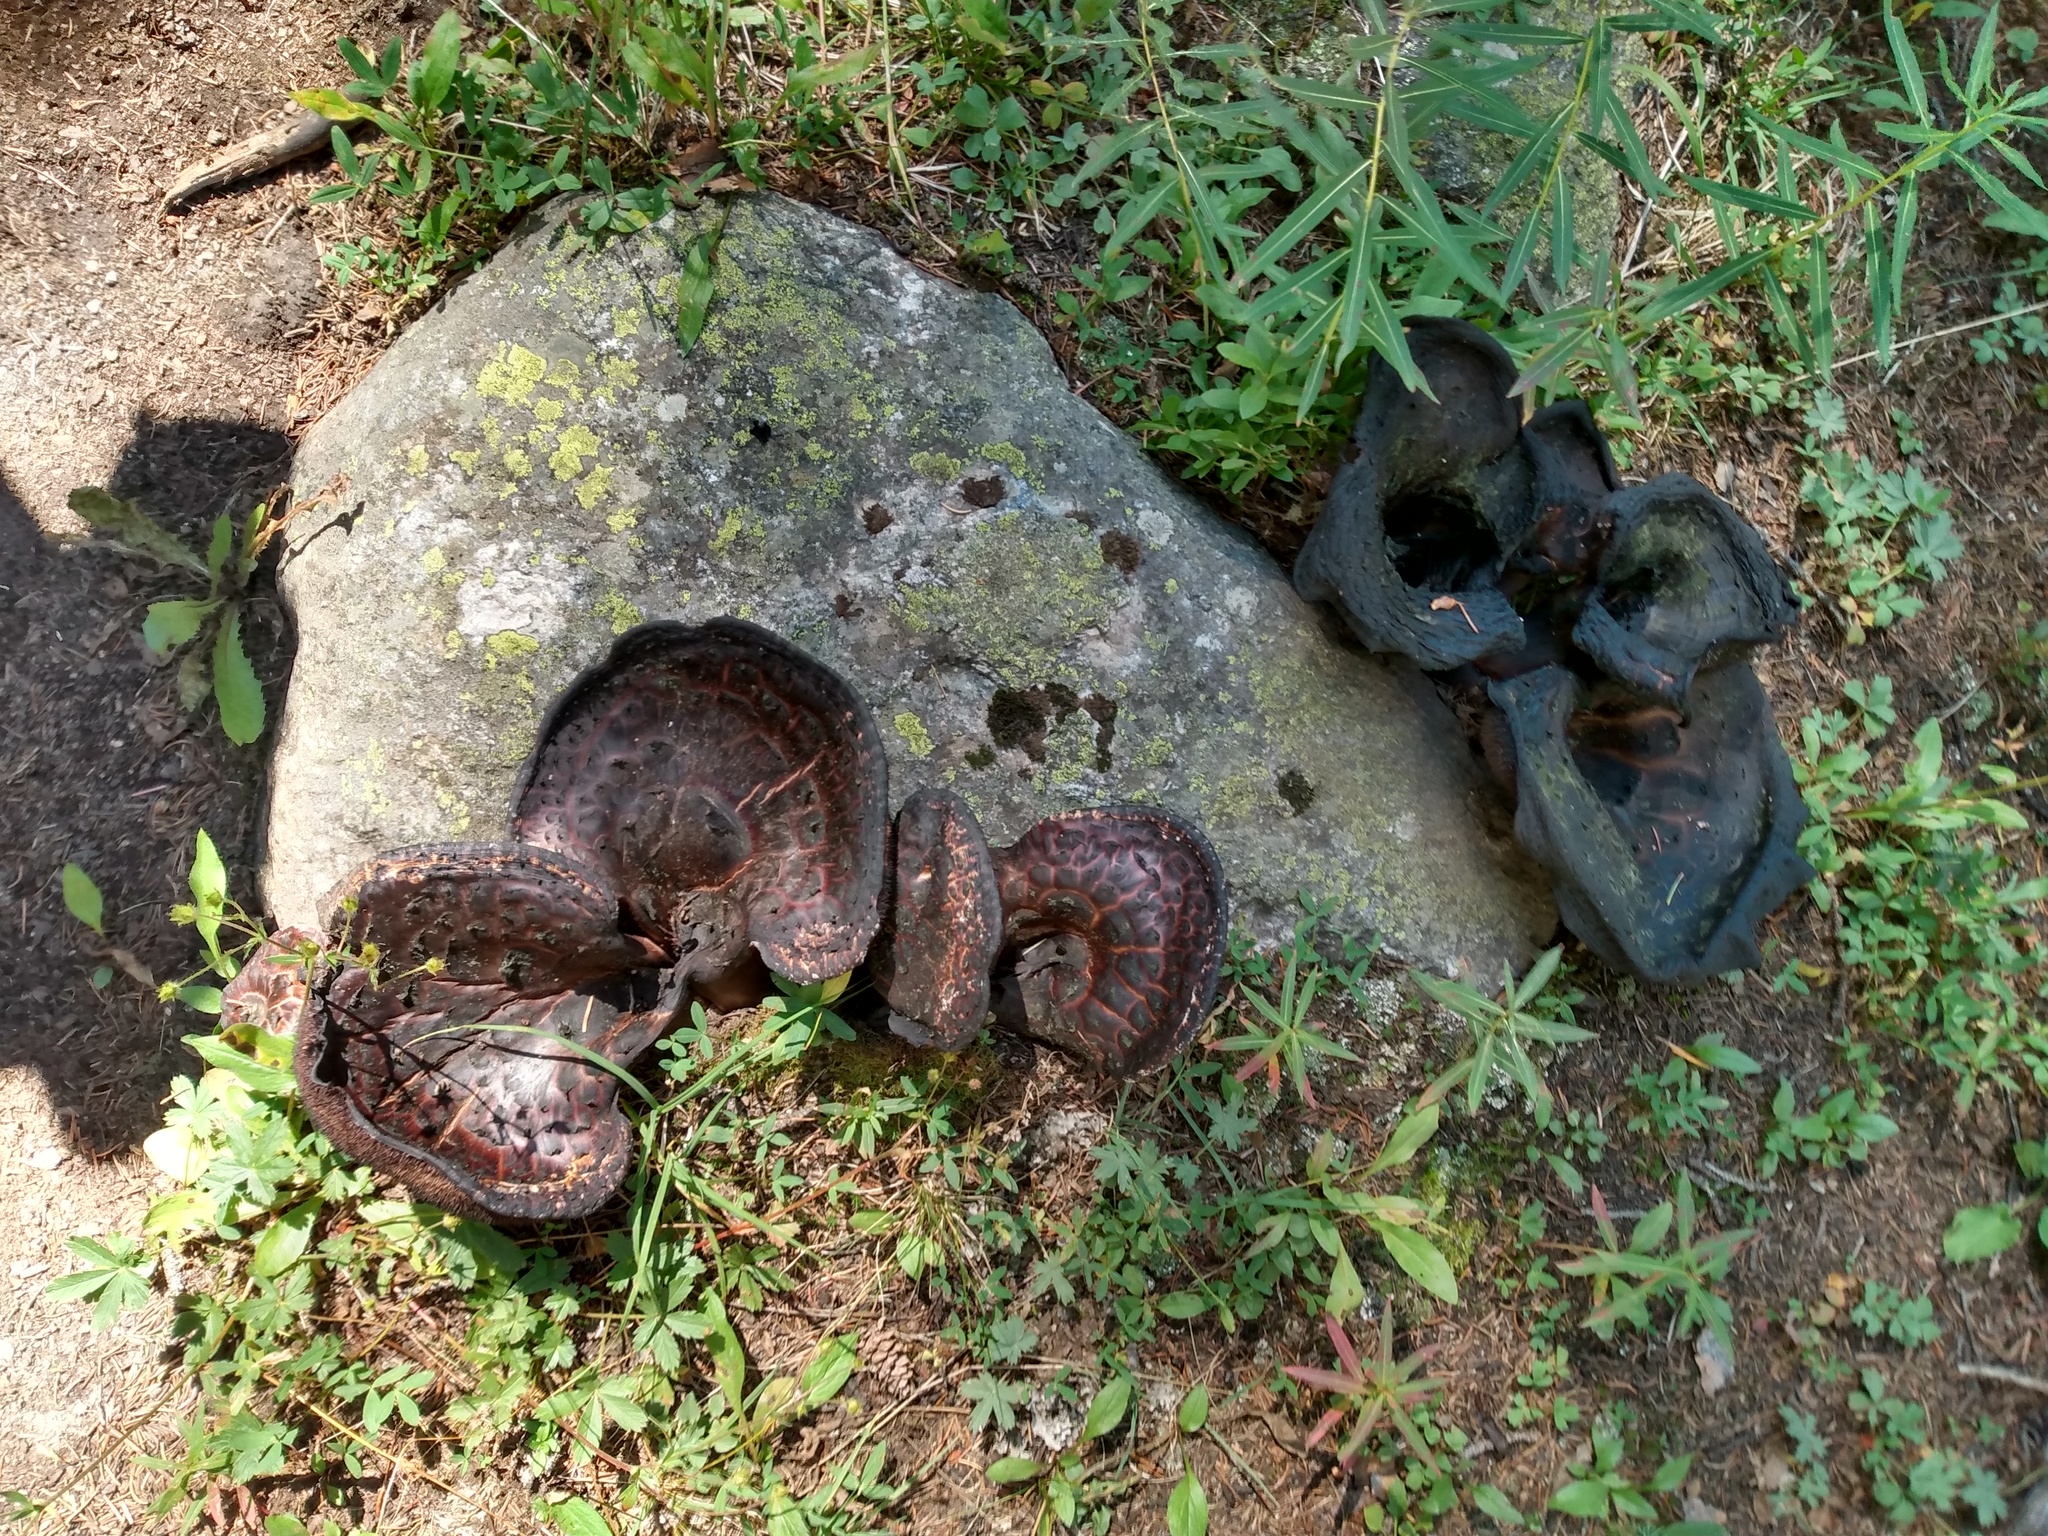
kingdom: Fungi
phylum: Basidiomycota
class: Agaricomycetes
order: Thelephorales
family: Bankeraceae
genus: Sarcodon
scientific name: Sarcodon imbricatus
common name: Shingled hedgehog
